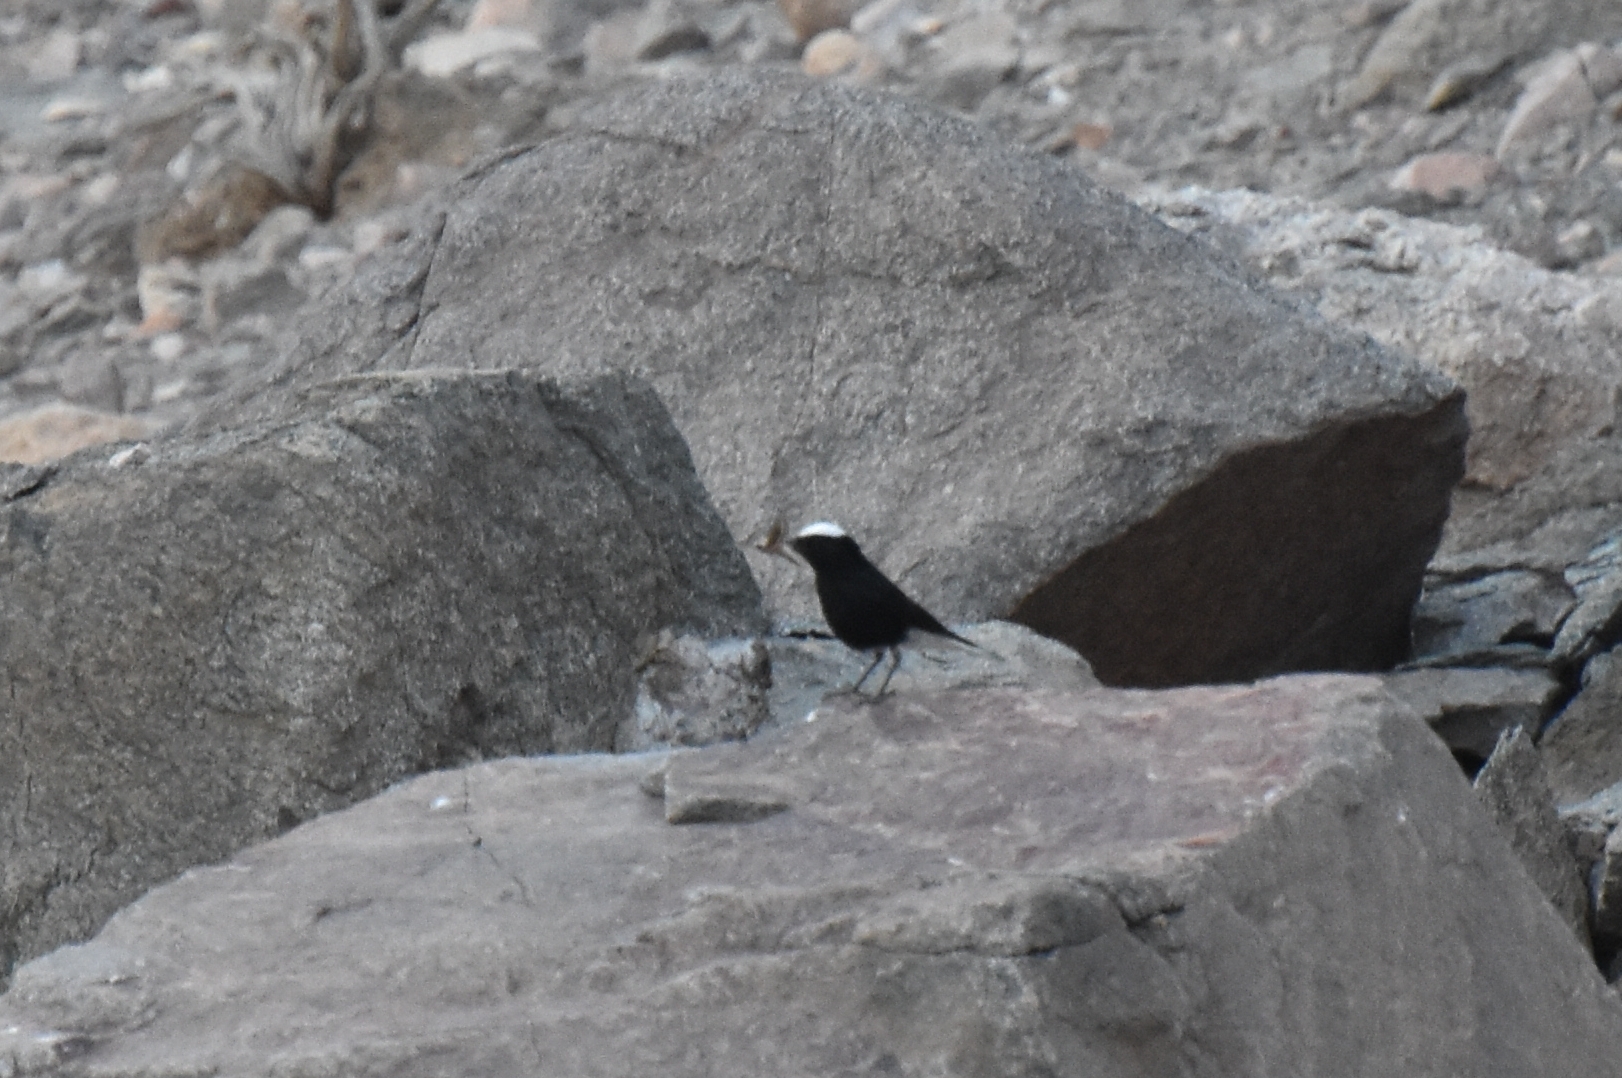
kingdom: Animalia
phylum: Chordata
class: Aves
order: Passeriformes
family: Muscicapidae
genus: Oenanthe
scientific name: Oenanthe leucopyga
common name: White-crowned wheatear
